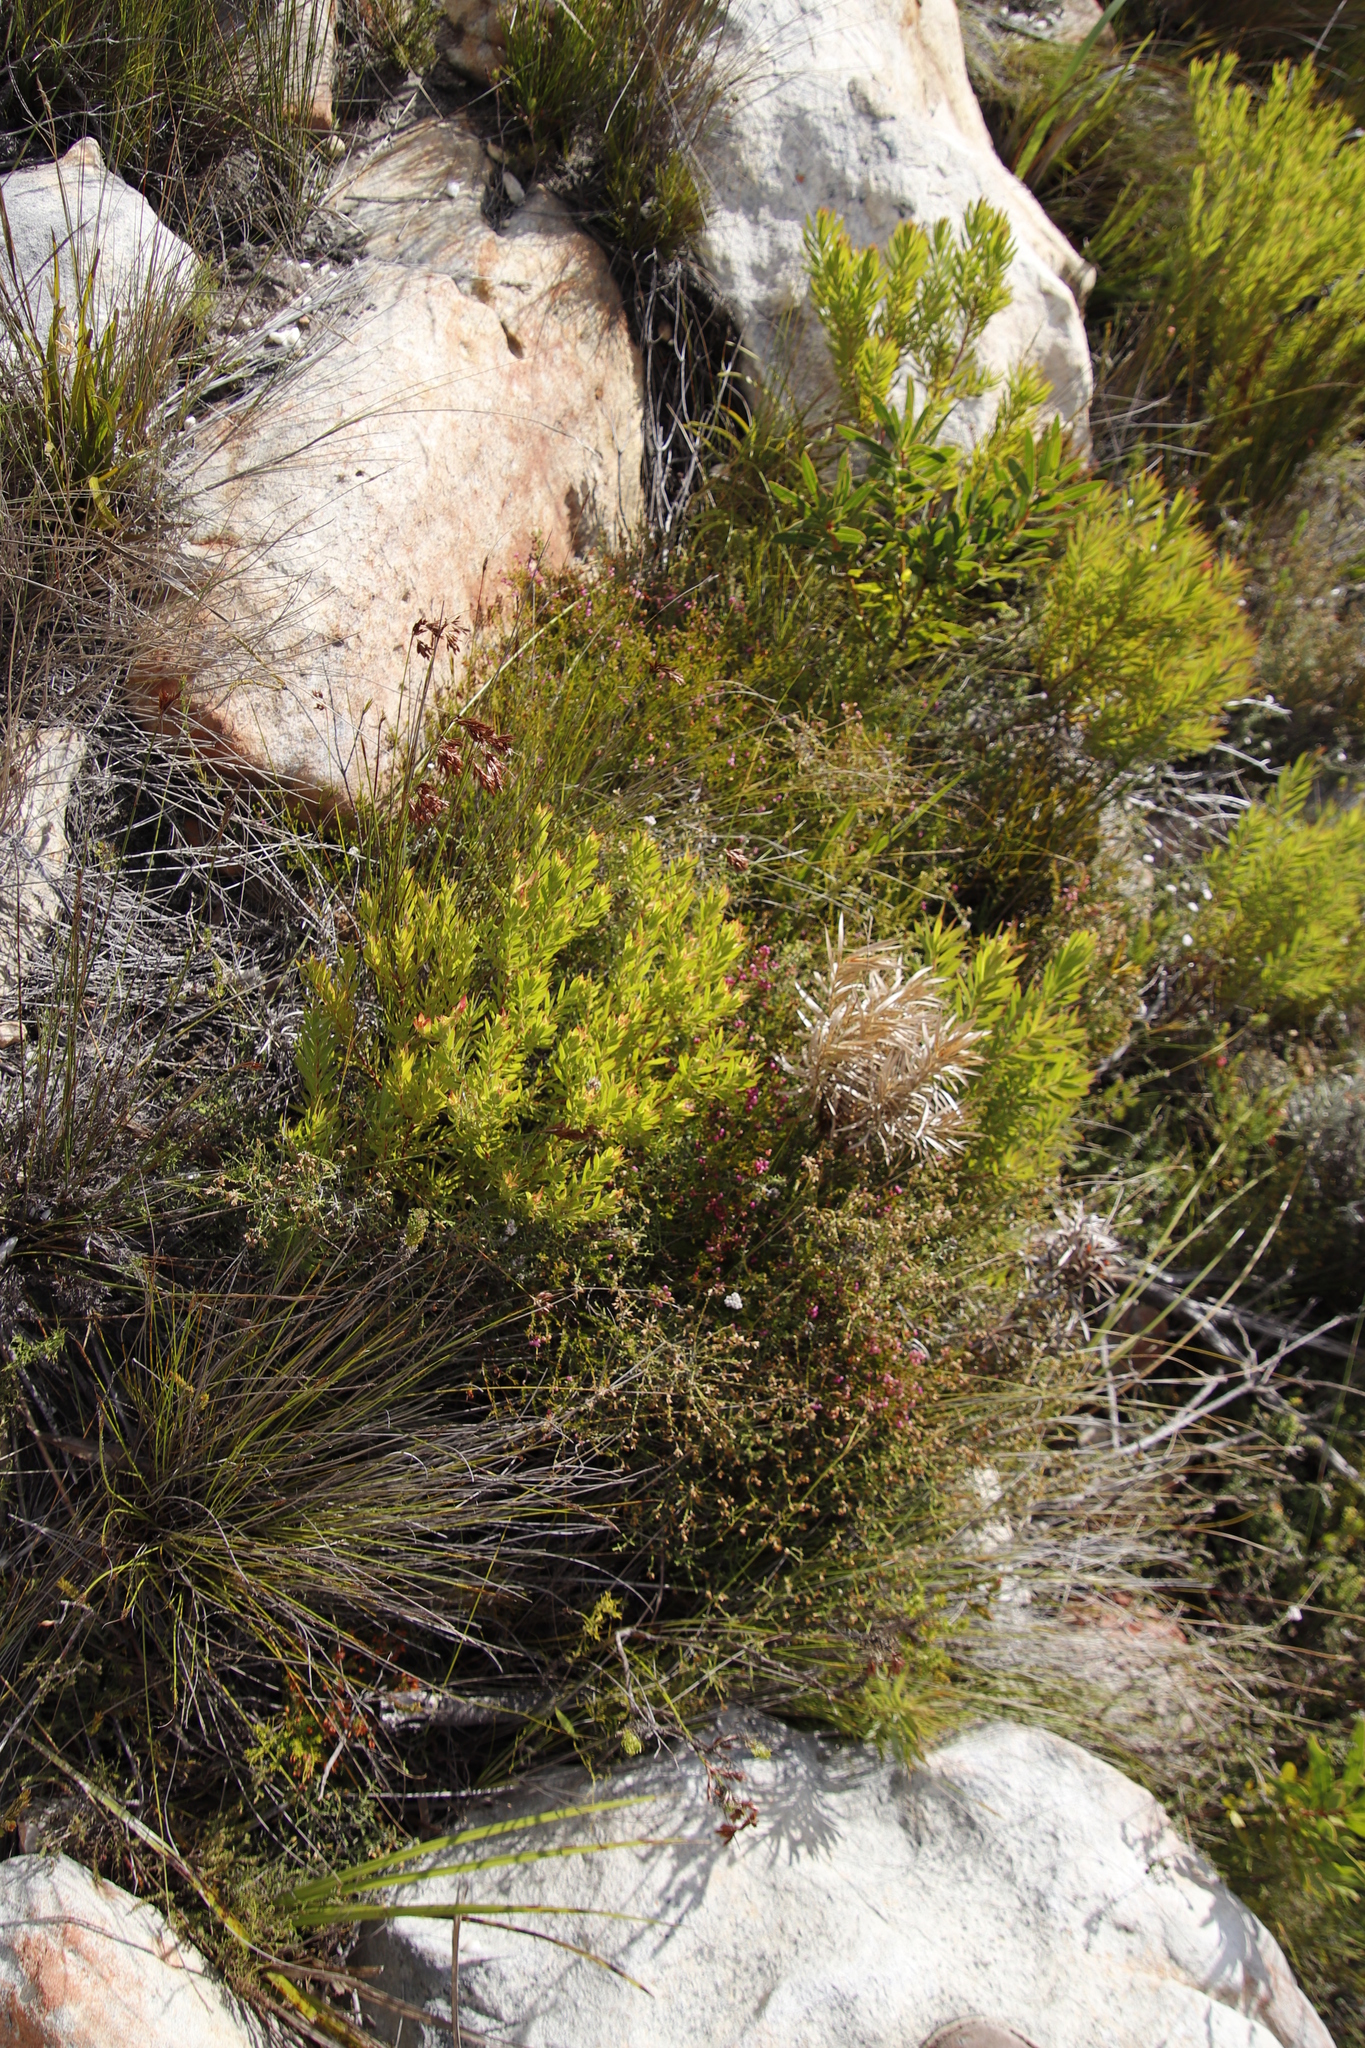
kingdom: Plantae
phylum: Tracheophyta
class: Magnoliopsida
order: Proteales
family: Proteaceae
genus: Leucadendron
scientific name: Leucadendron xanthoconus
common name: Sickle-leaf conebush
